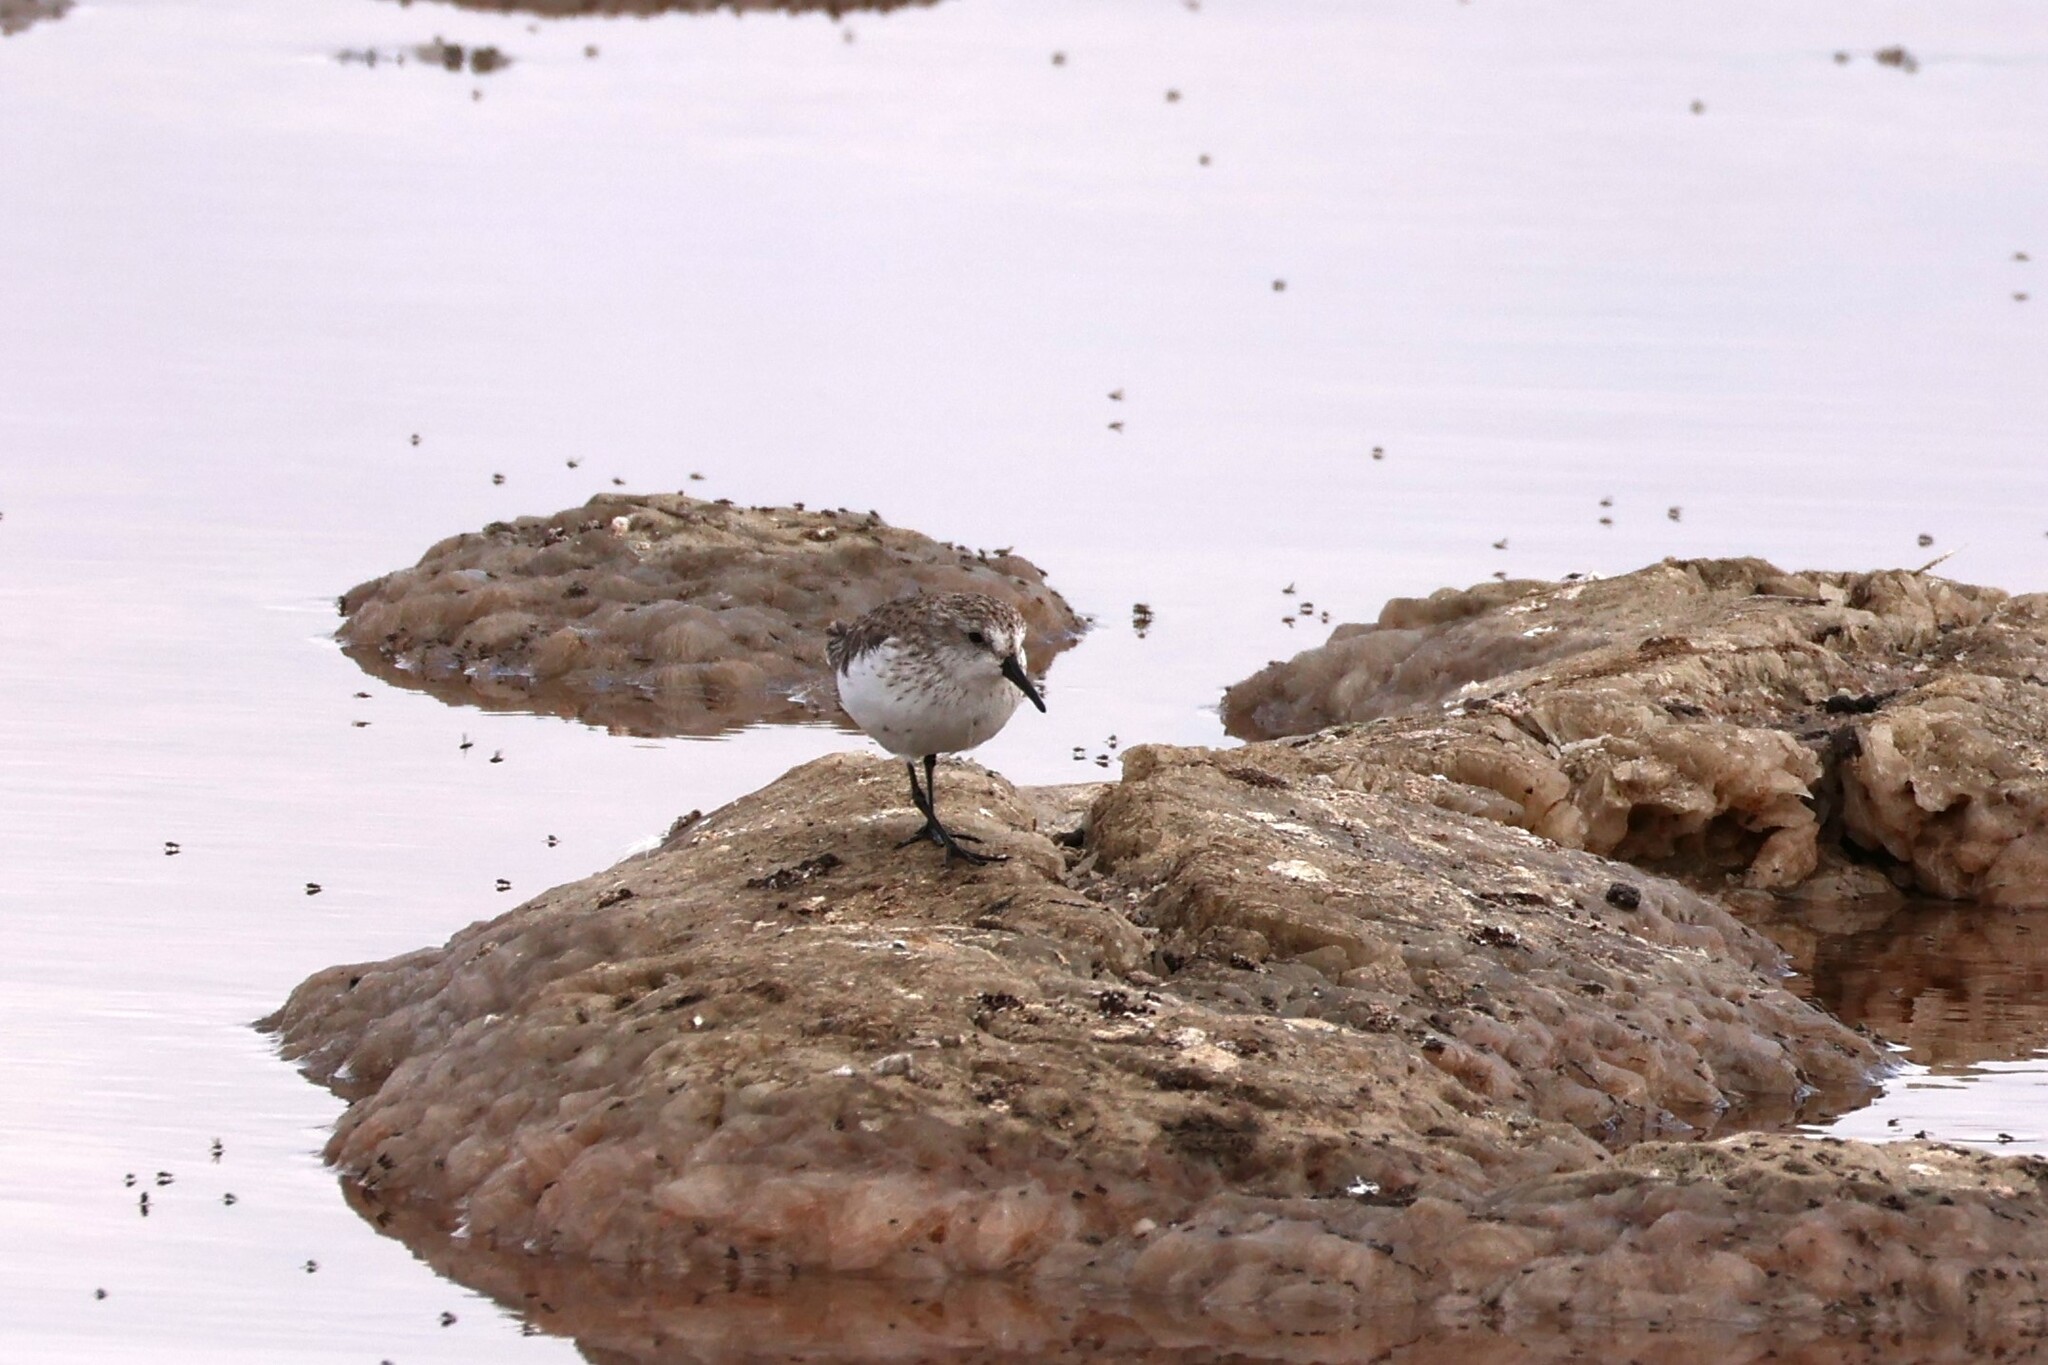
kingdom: Animalia
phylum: Chordata
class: Aves
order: Charadriiformes
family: Scolopacidae
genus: Calidris
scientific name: Calidris mauri
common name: Western sandpiper
